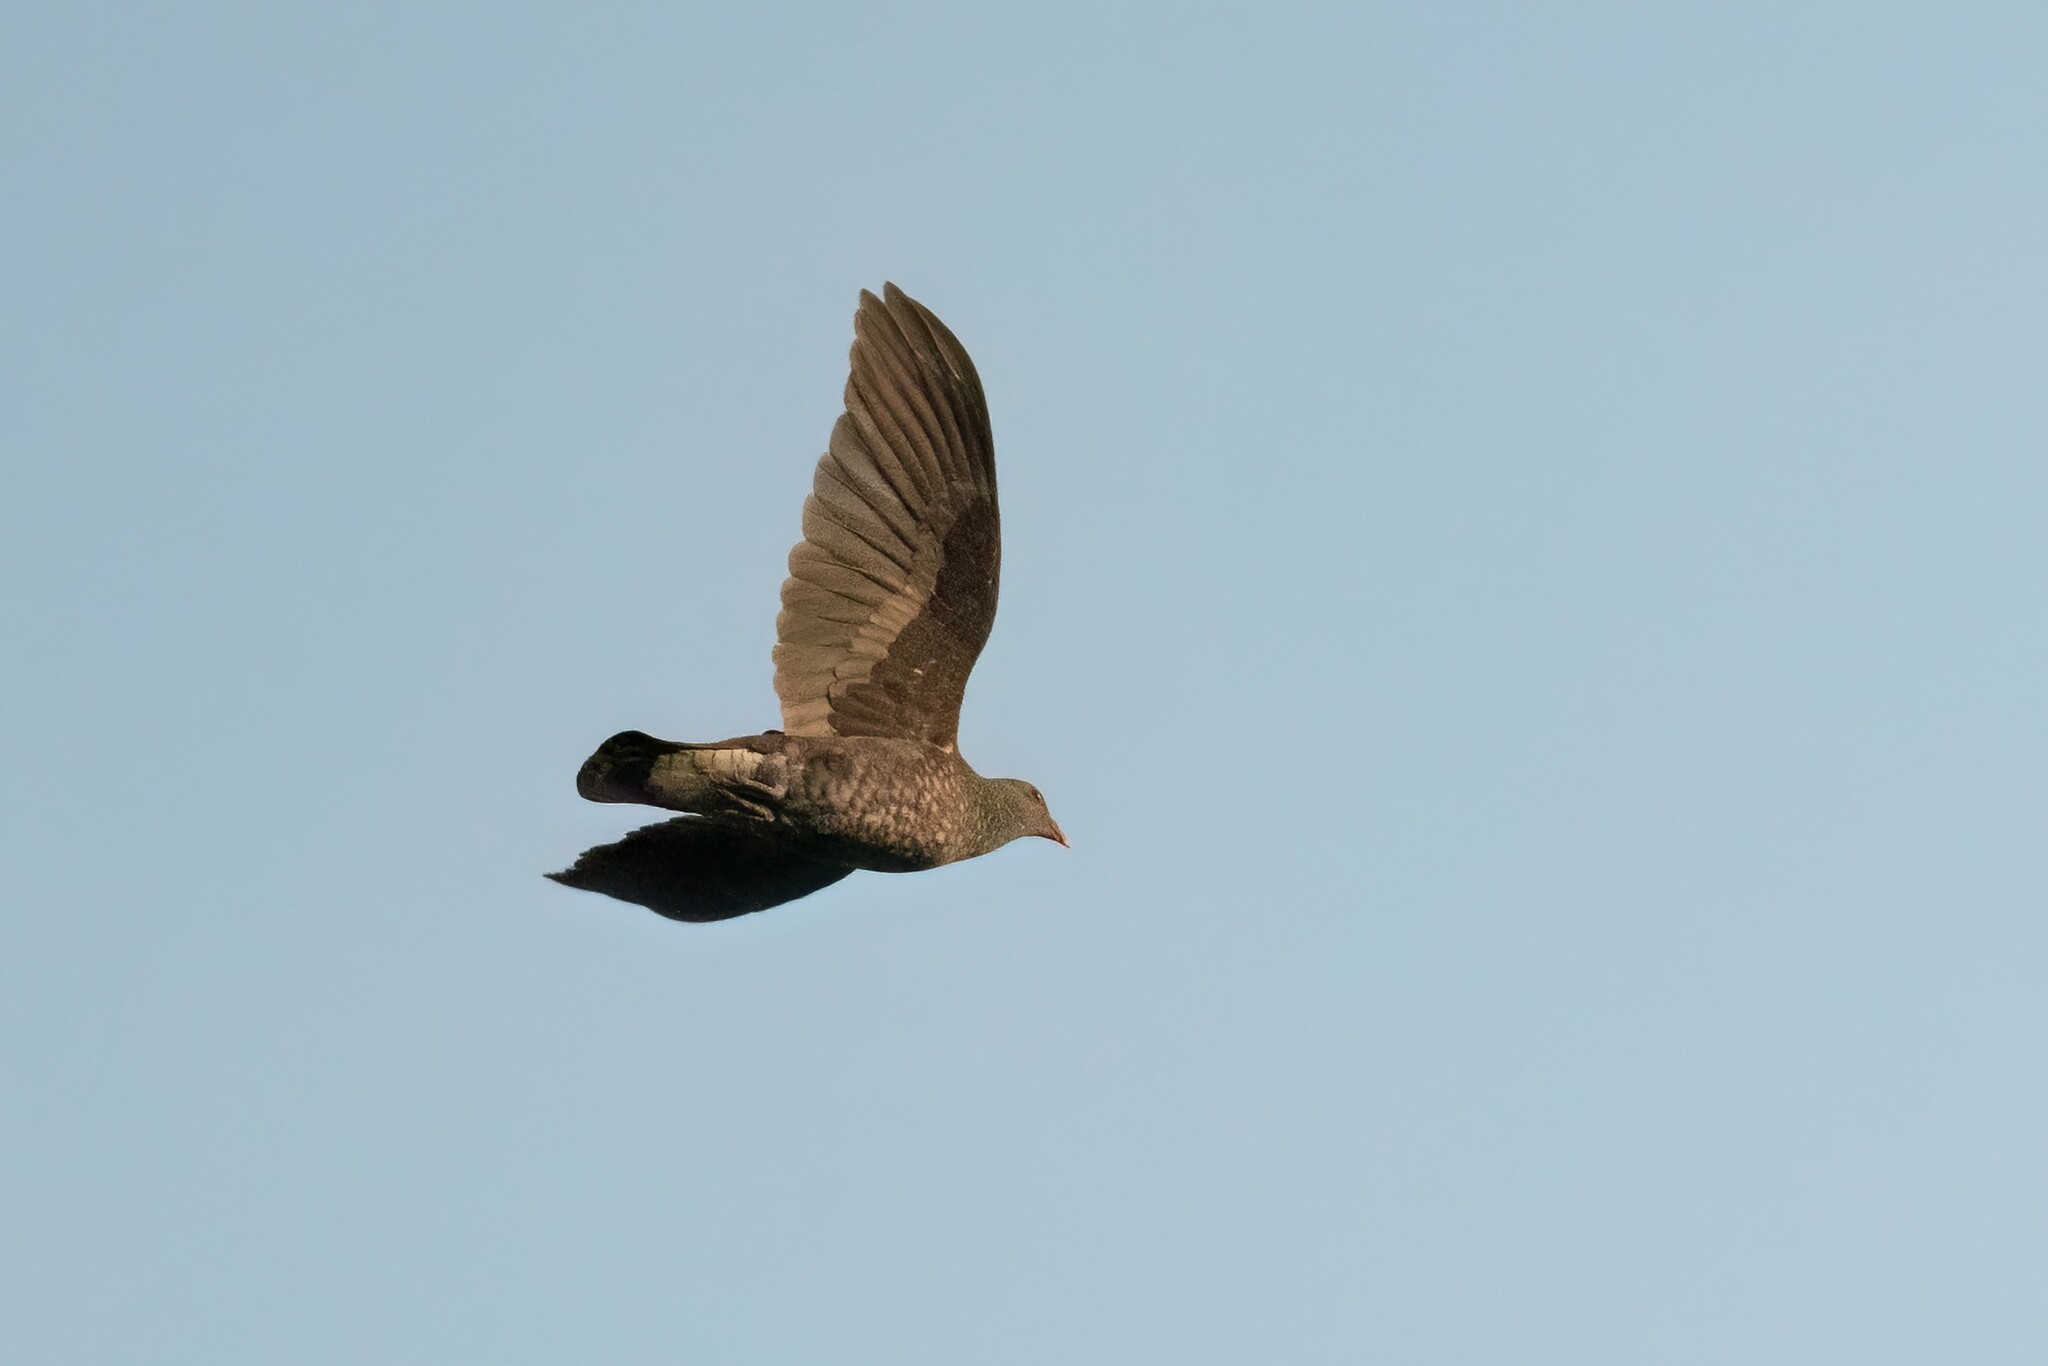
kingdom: Animalia
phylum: Chordata
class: Aves
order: Columbiformes
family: Columbidae
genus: Patagioenas
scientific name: Patagioenas speciosa
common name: Scaled pigeon
